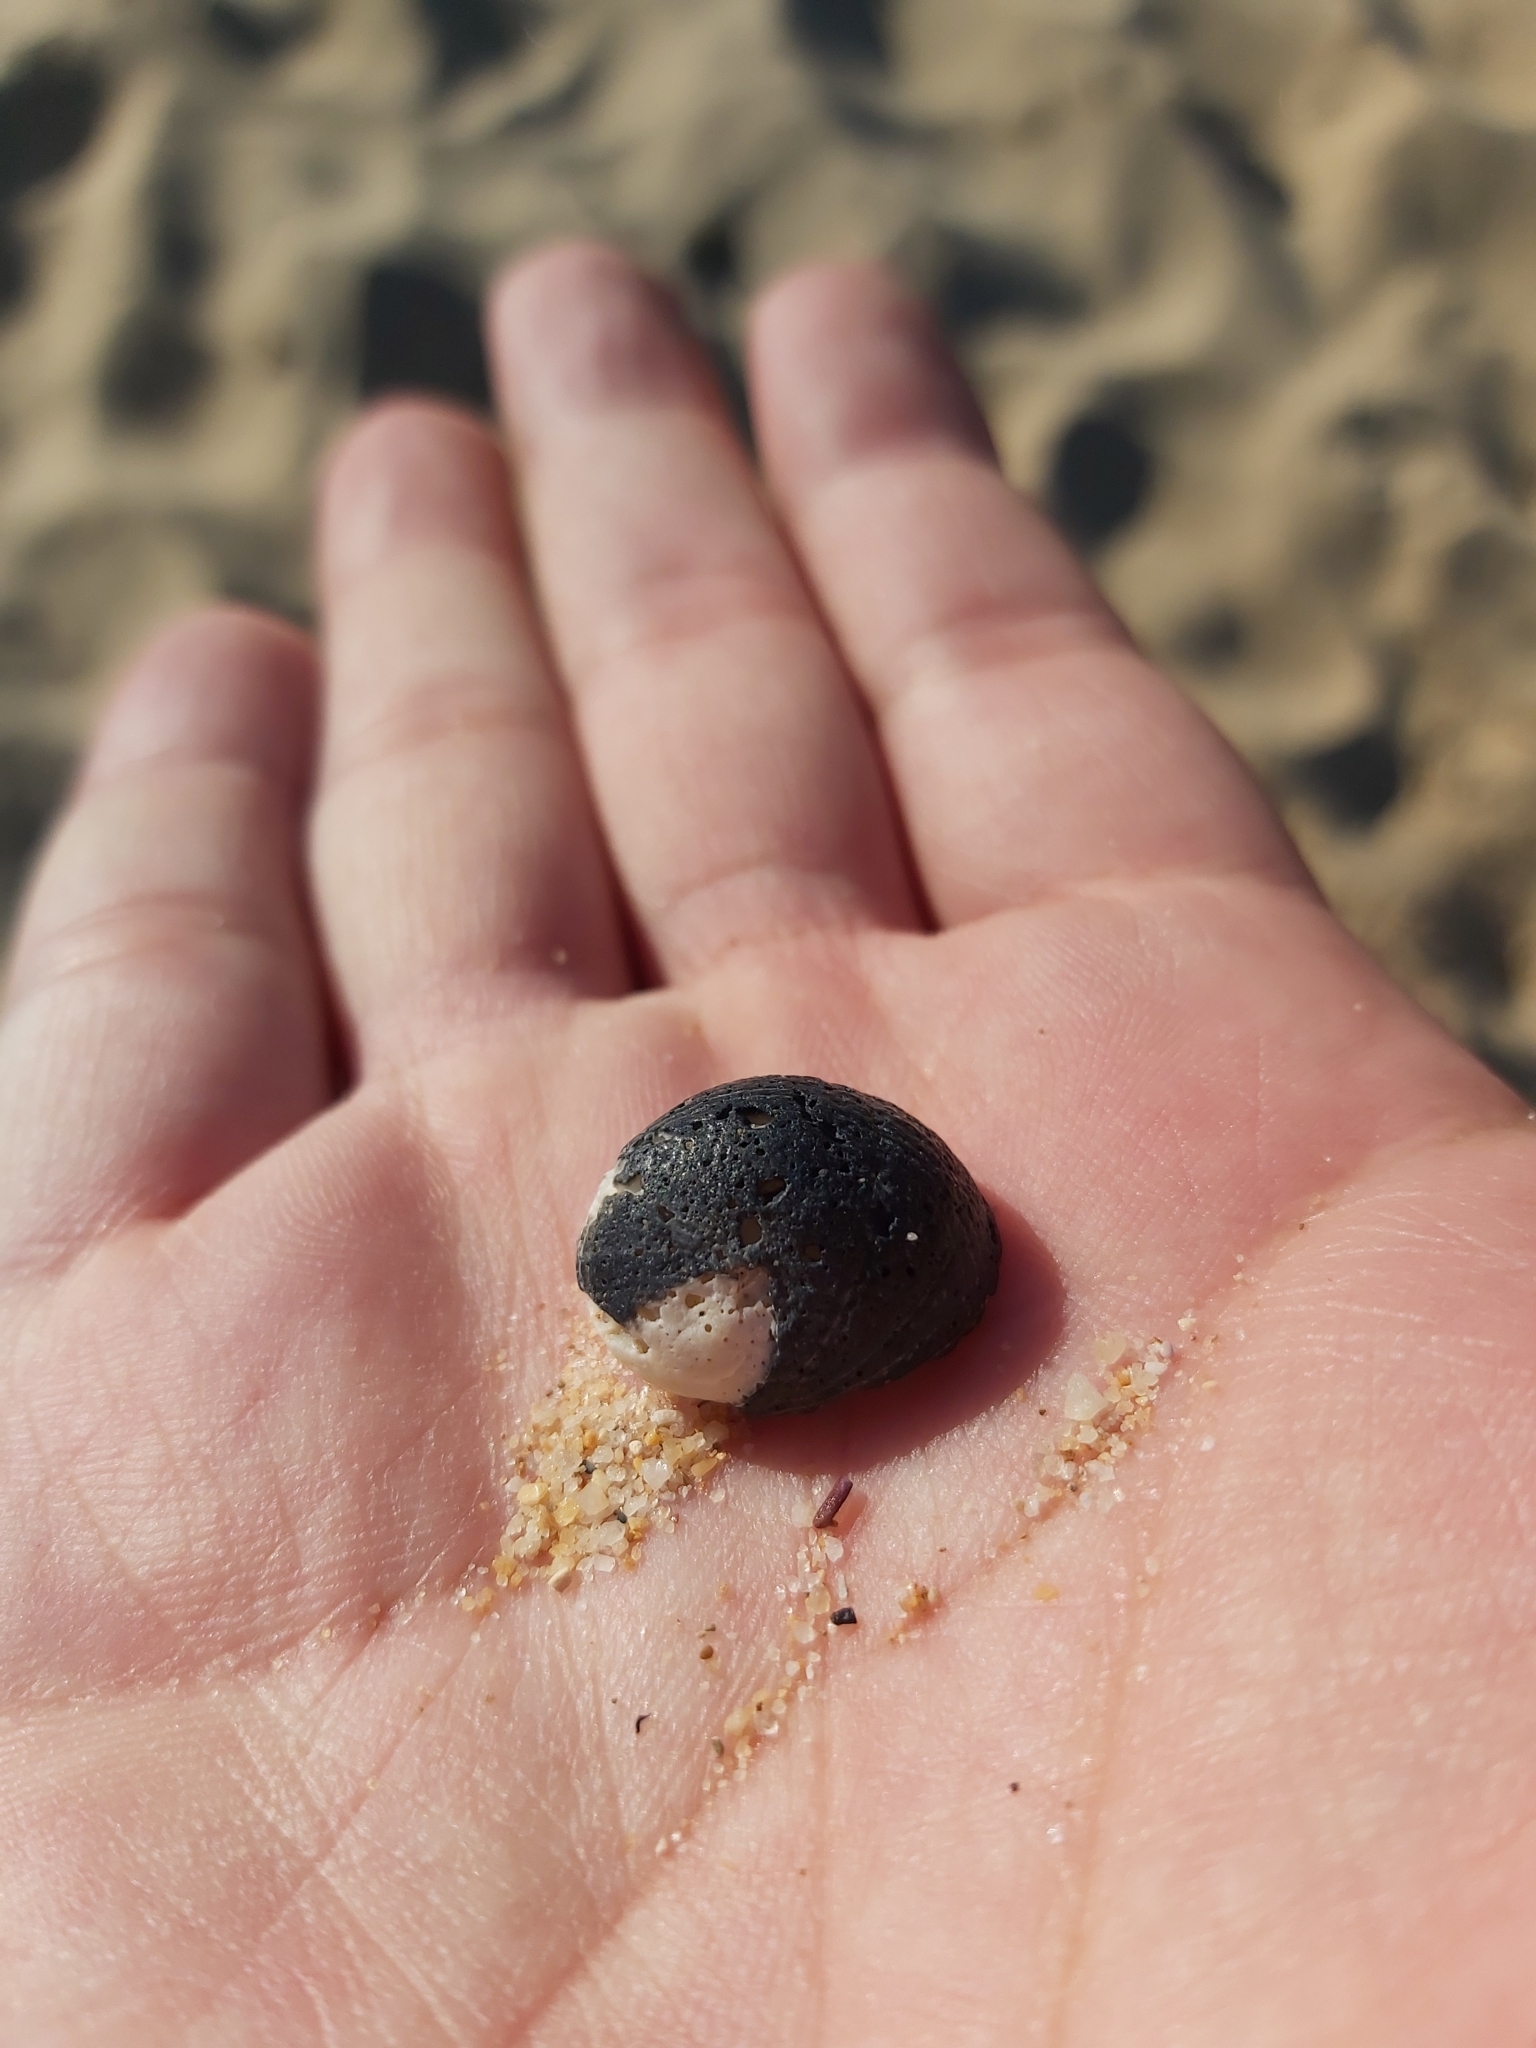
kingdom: Animalia
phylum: Mollusca
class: Gastropoda
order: Cycloneritida
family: Neritidae
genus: Nerita
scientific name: Nerita melanotragus
